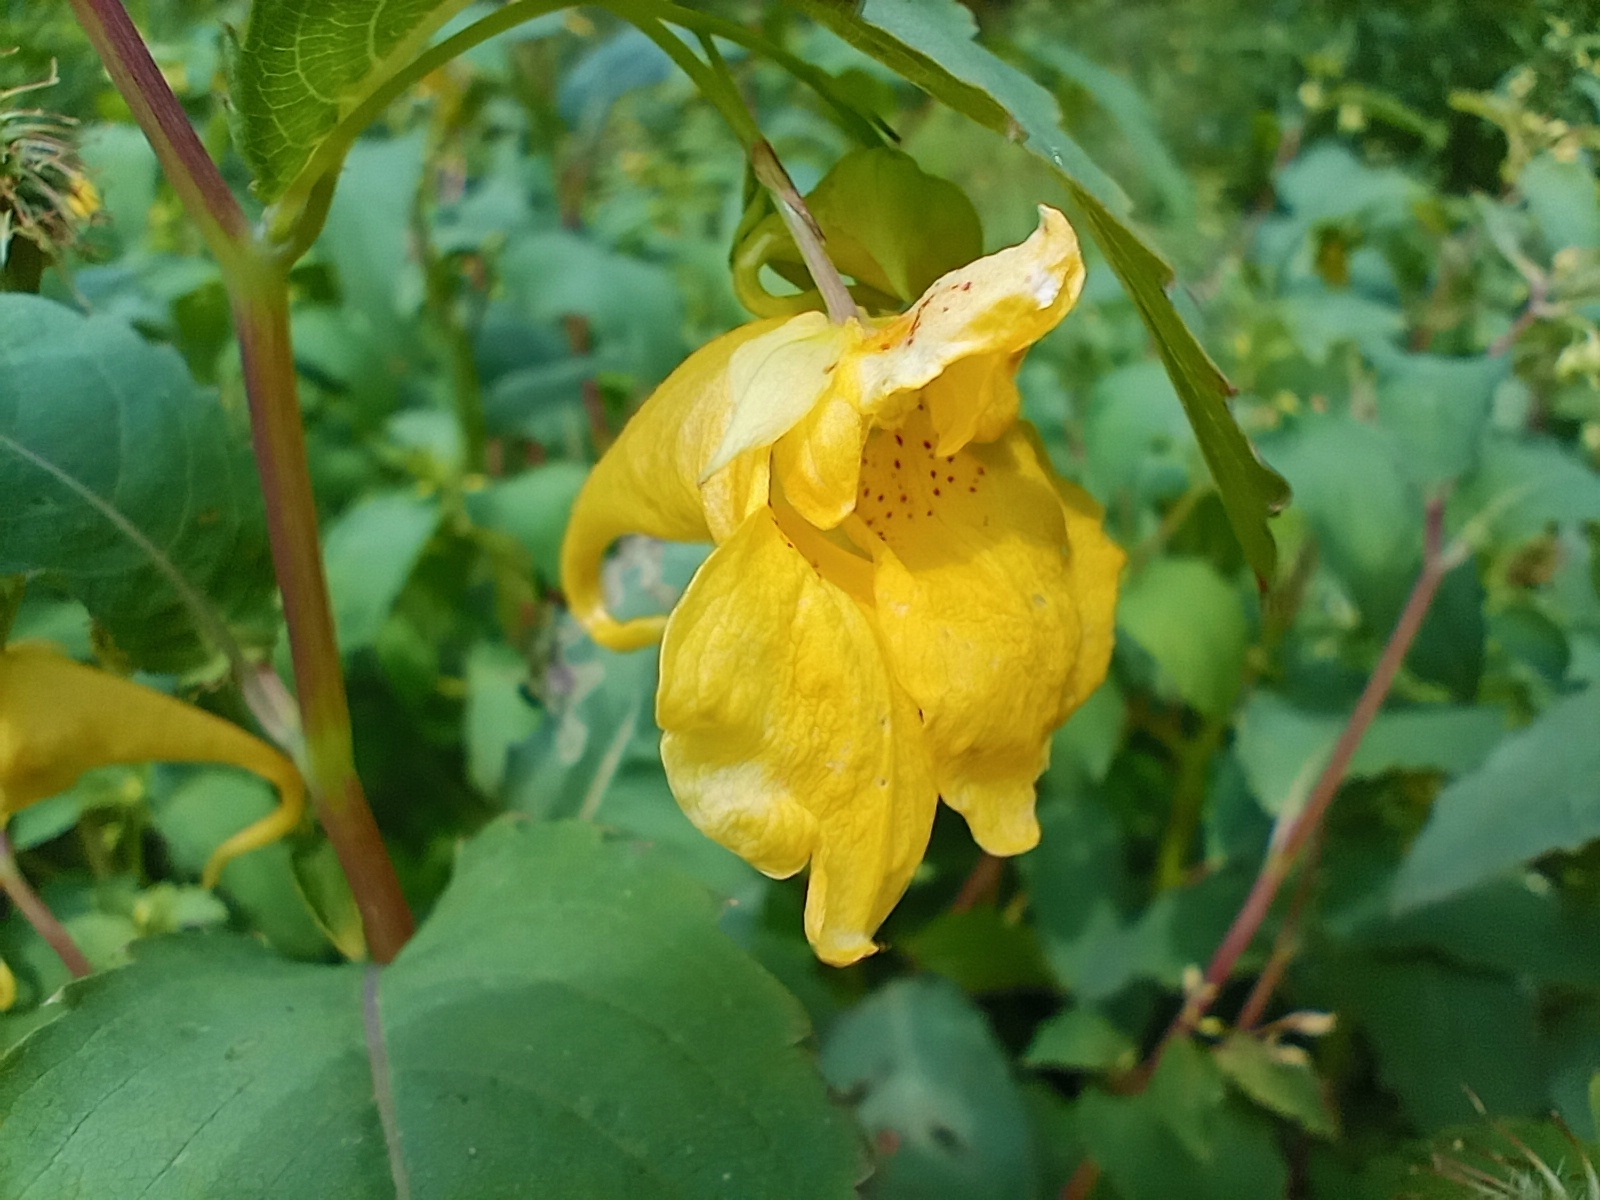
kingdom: Plantae
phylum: Tracheophyta
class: Magnoliopsida
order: Ericales
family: Balsaminaceae
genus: Impatiens
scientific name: Impatiens noli-tangere
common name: Touch-me-not balsam
